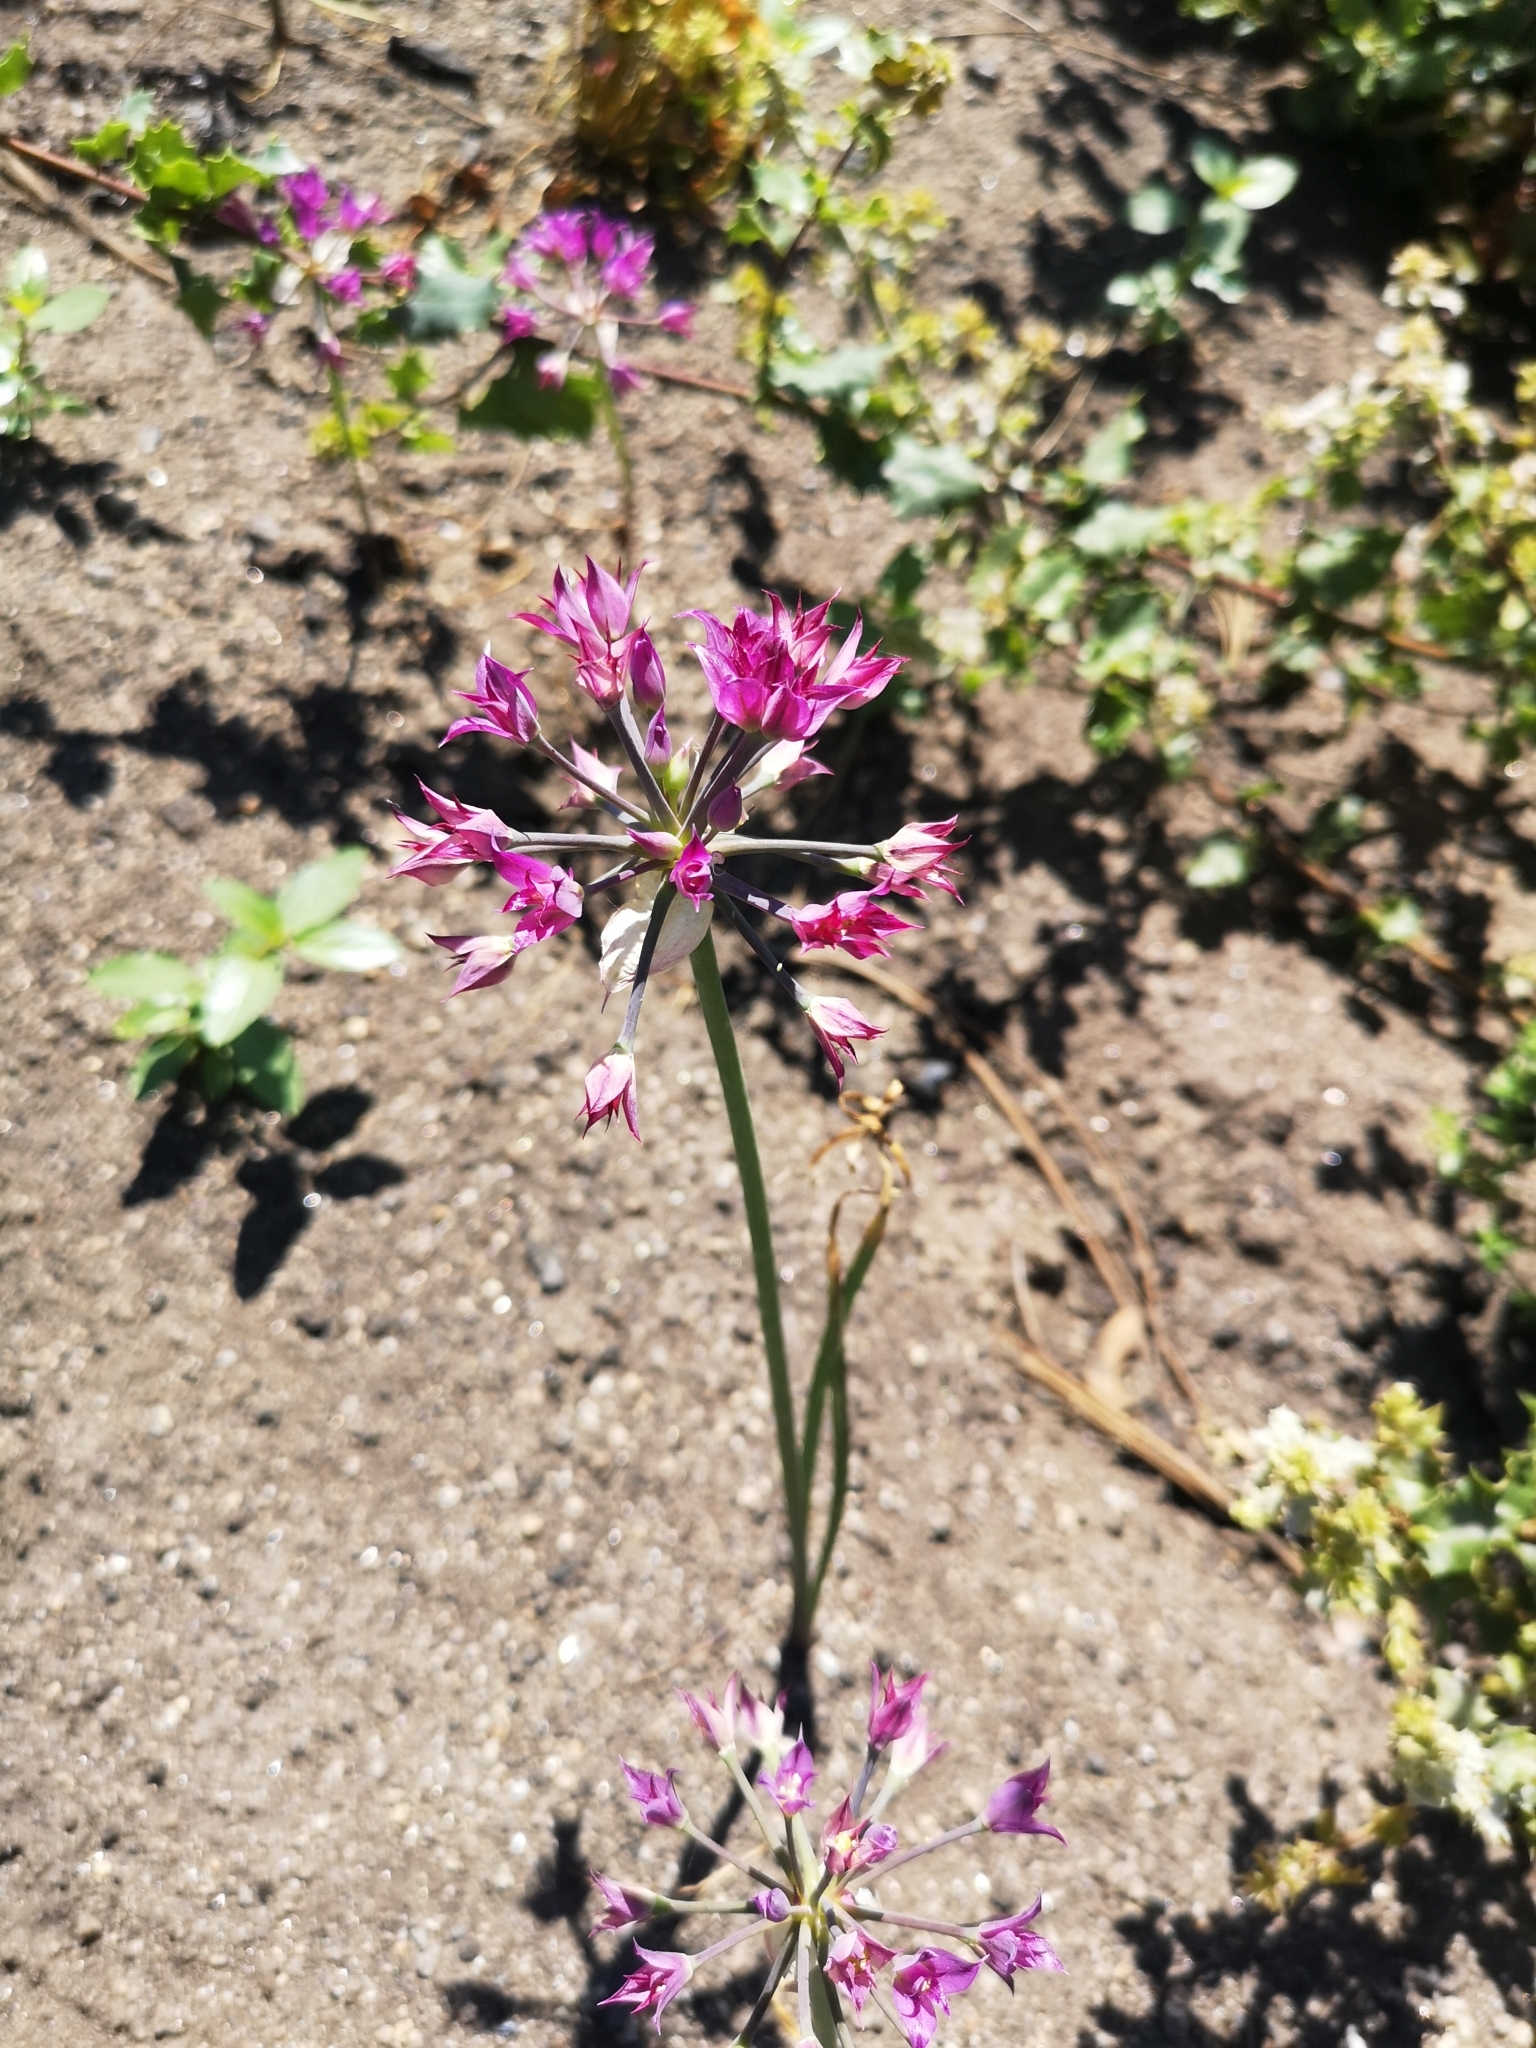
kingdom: Plantae
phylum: Tracheophyta
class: Liliopsida
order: Asparagales
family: Amaryllidaceae
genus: Allium
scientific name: Allium peninsulare
